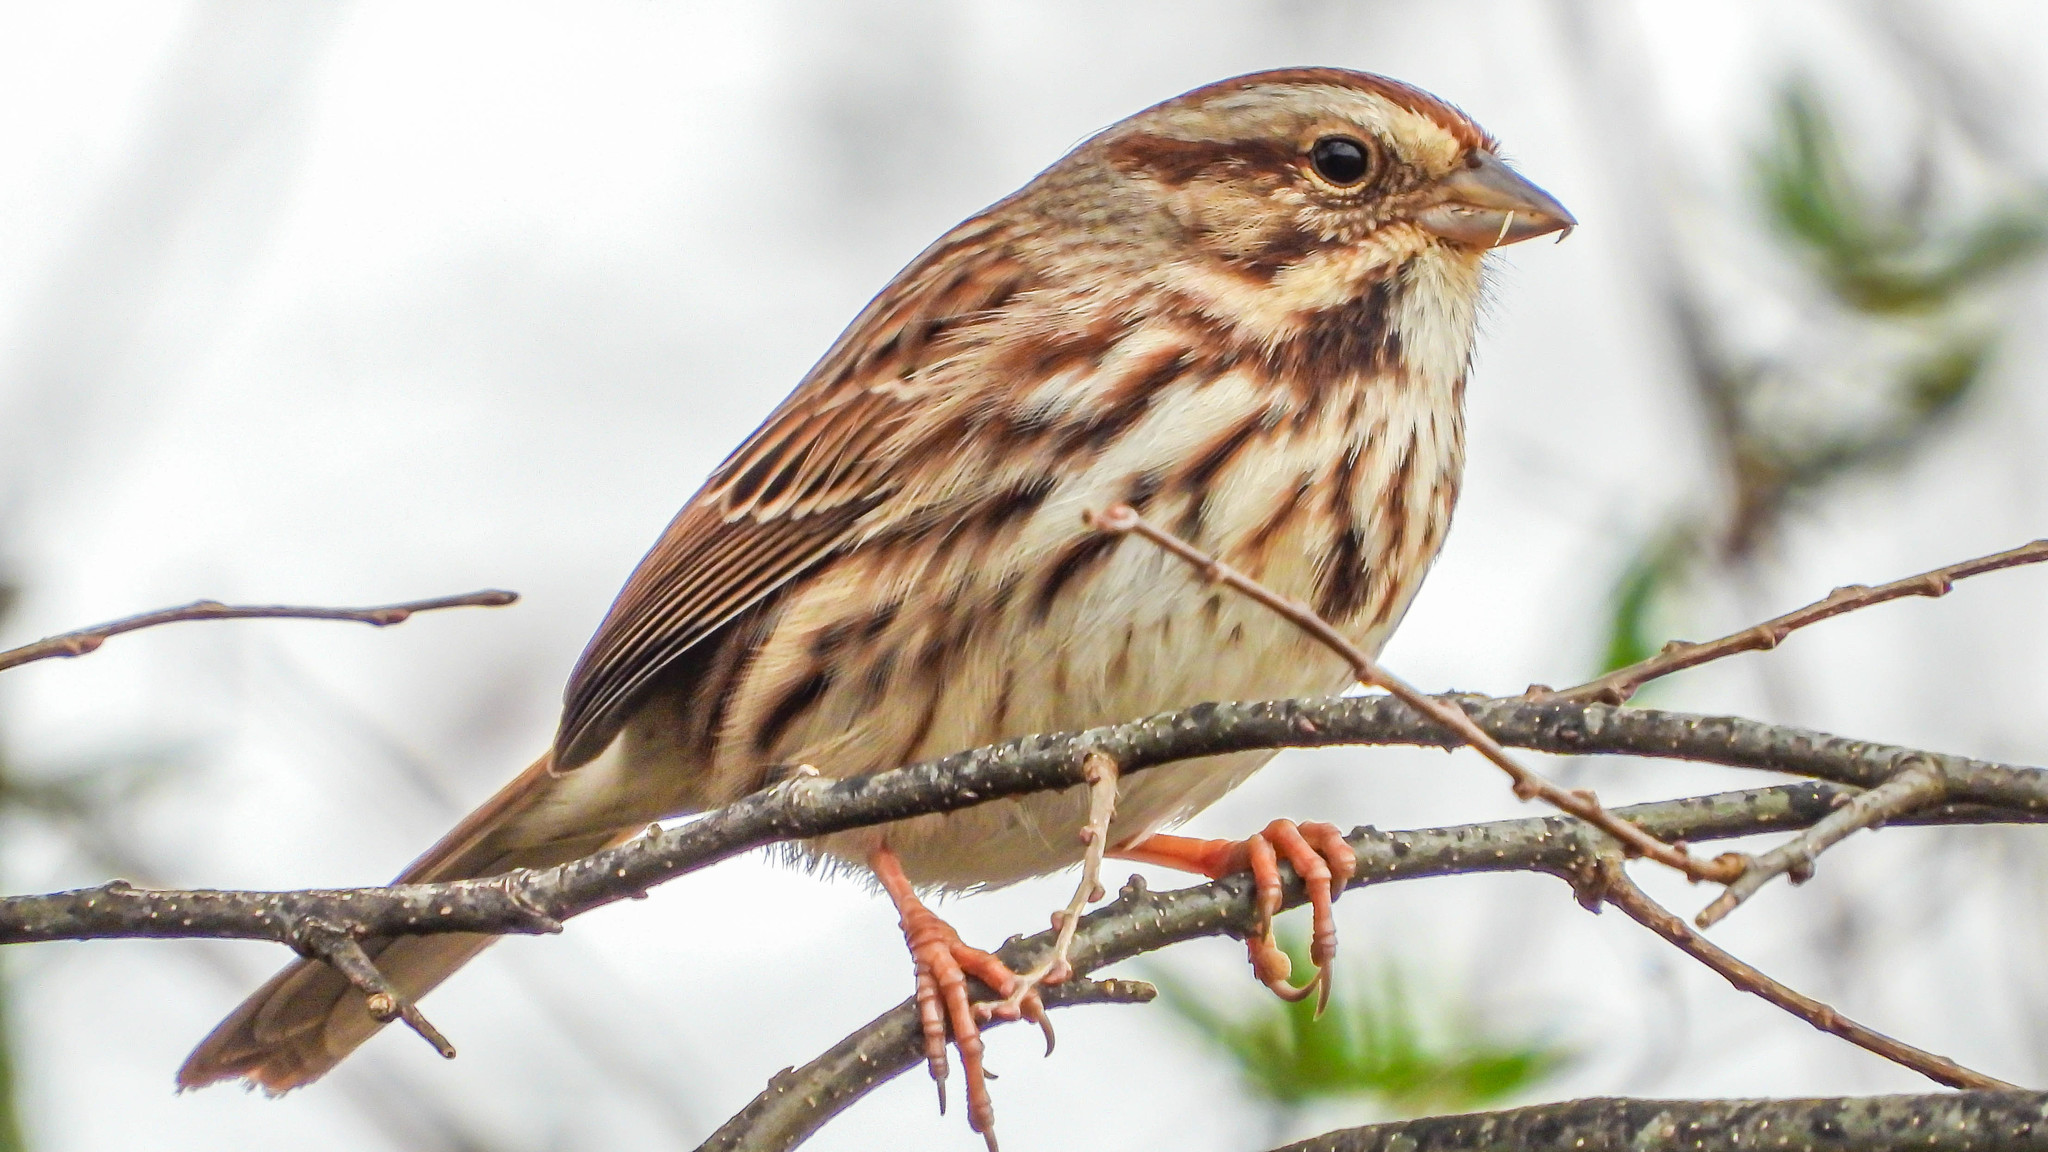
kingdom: Animalia
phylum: Chordata
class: Aves
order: Passeriformes
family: Passerellidae
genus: Melospiza
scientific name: Melospiza melodia
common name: Song sparrow
